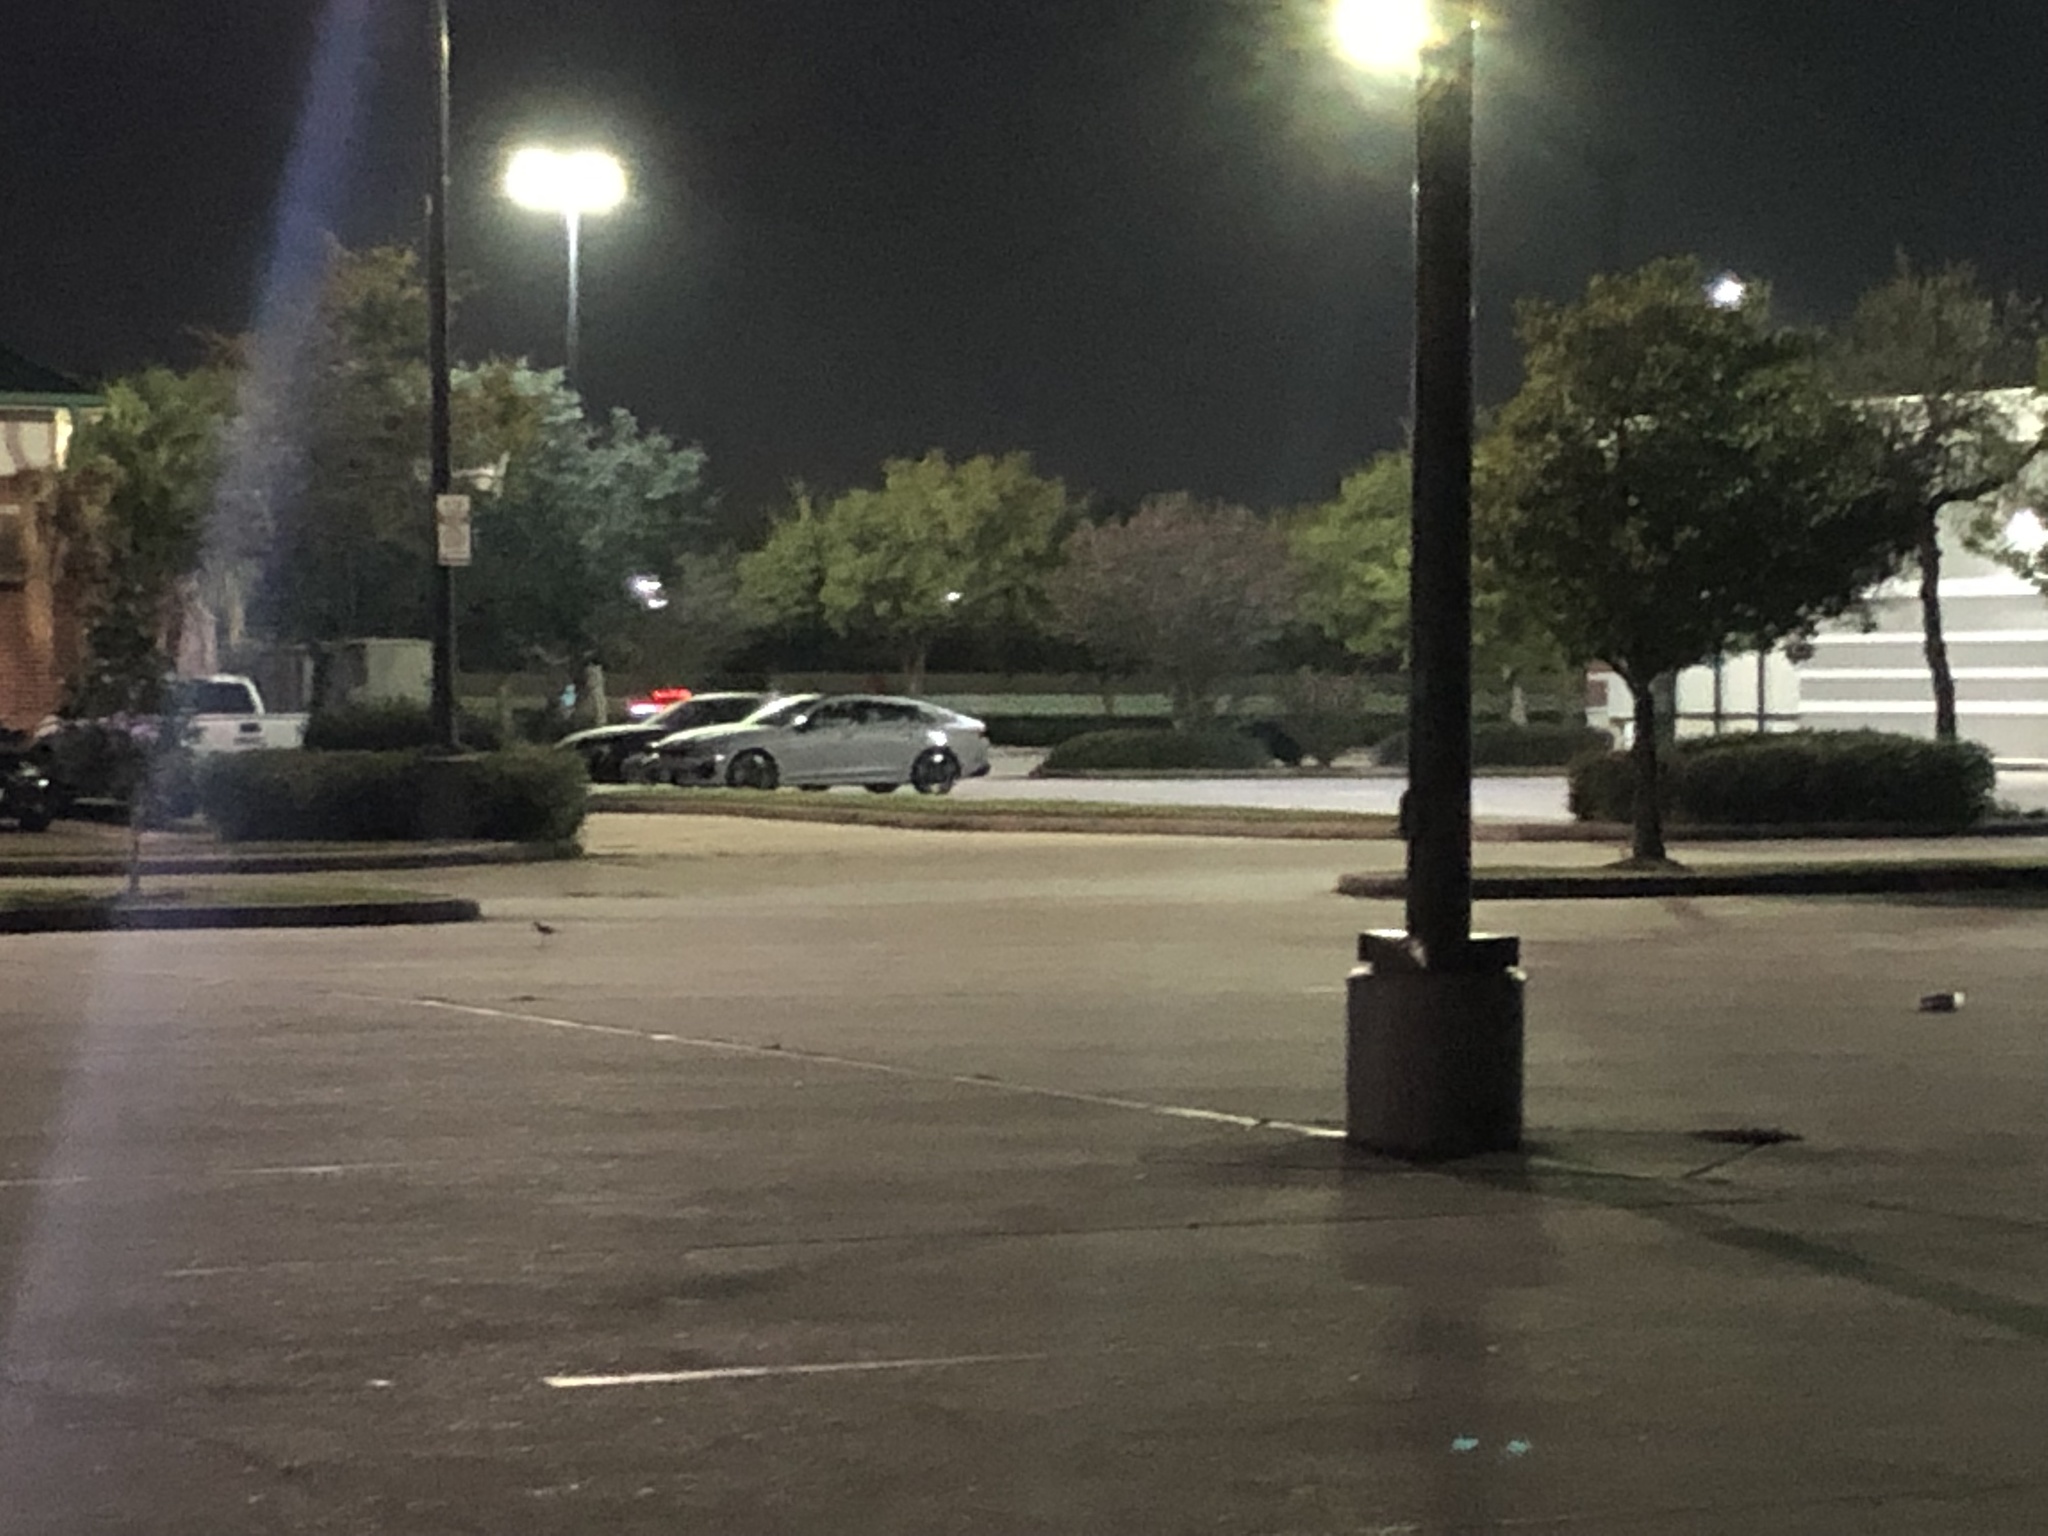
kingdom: Animalia
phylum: Chordata
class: Aves
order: Charadriiformes
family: Charadriidae
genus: Charadrius
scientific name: Charadrius vociferus
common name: Killdeer
